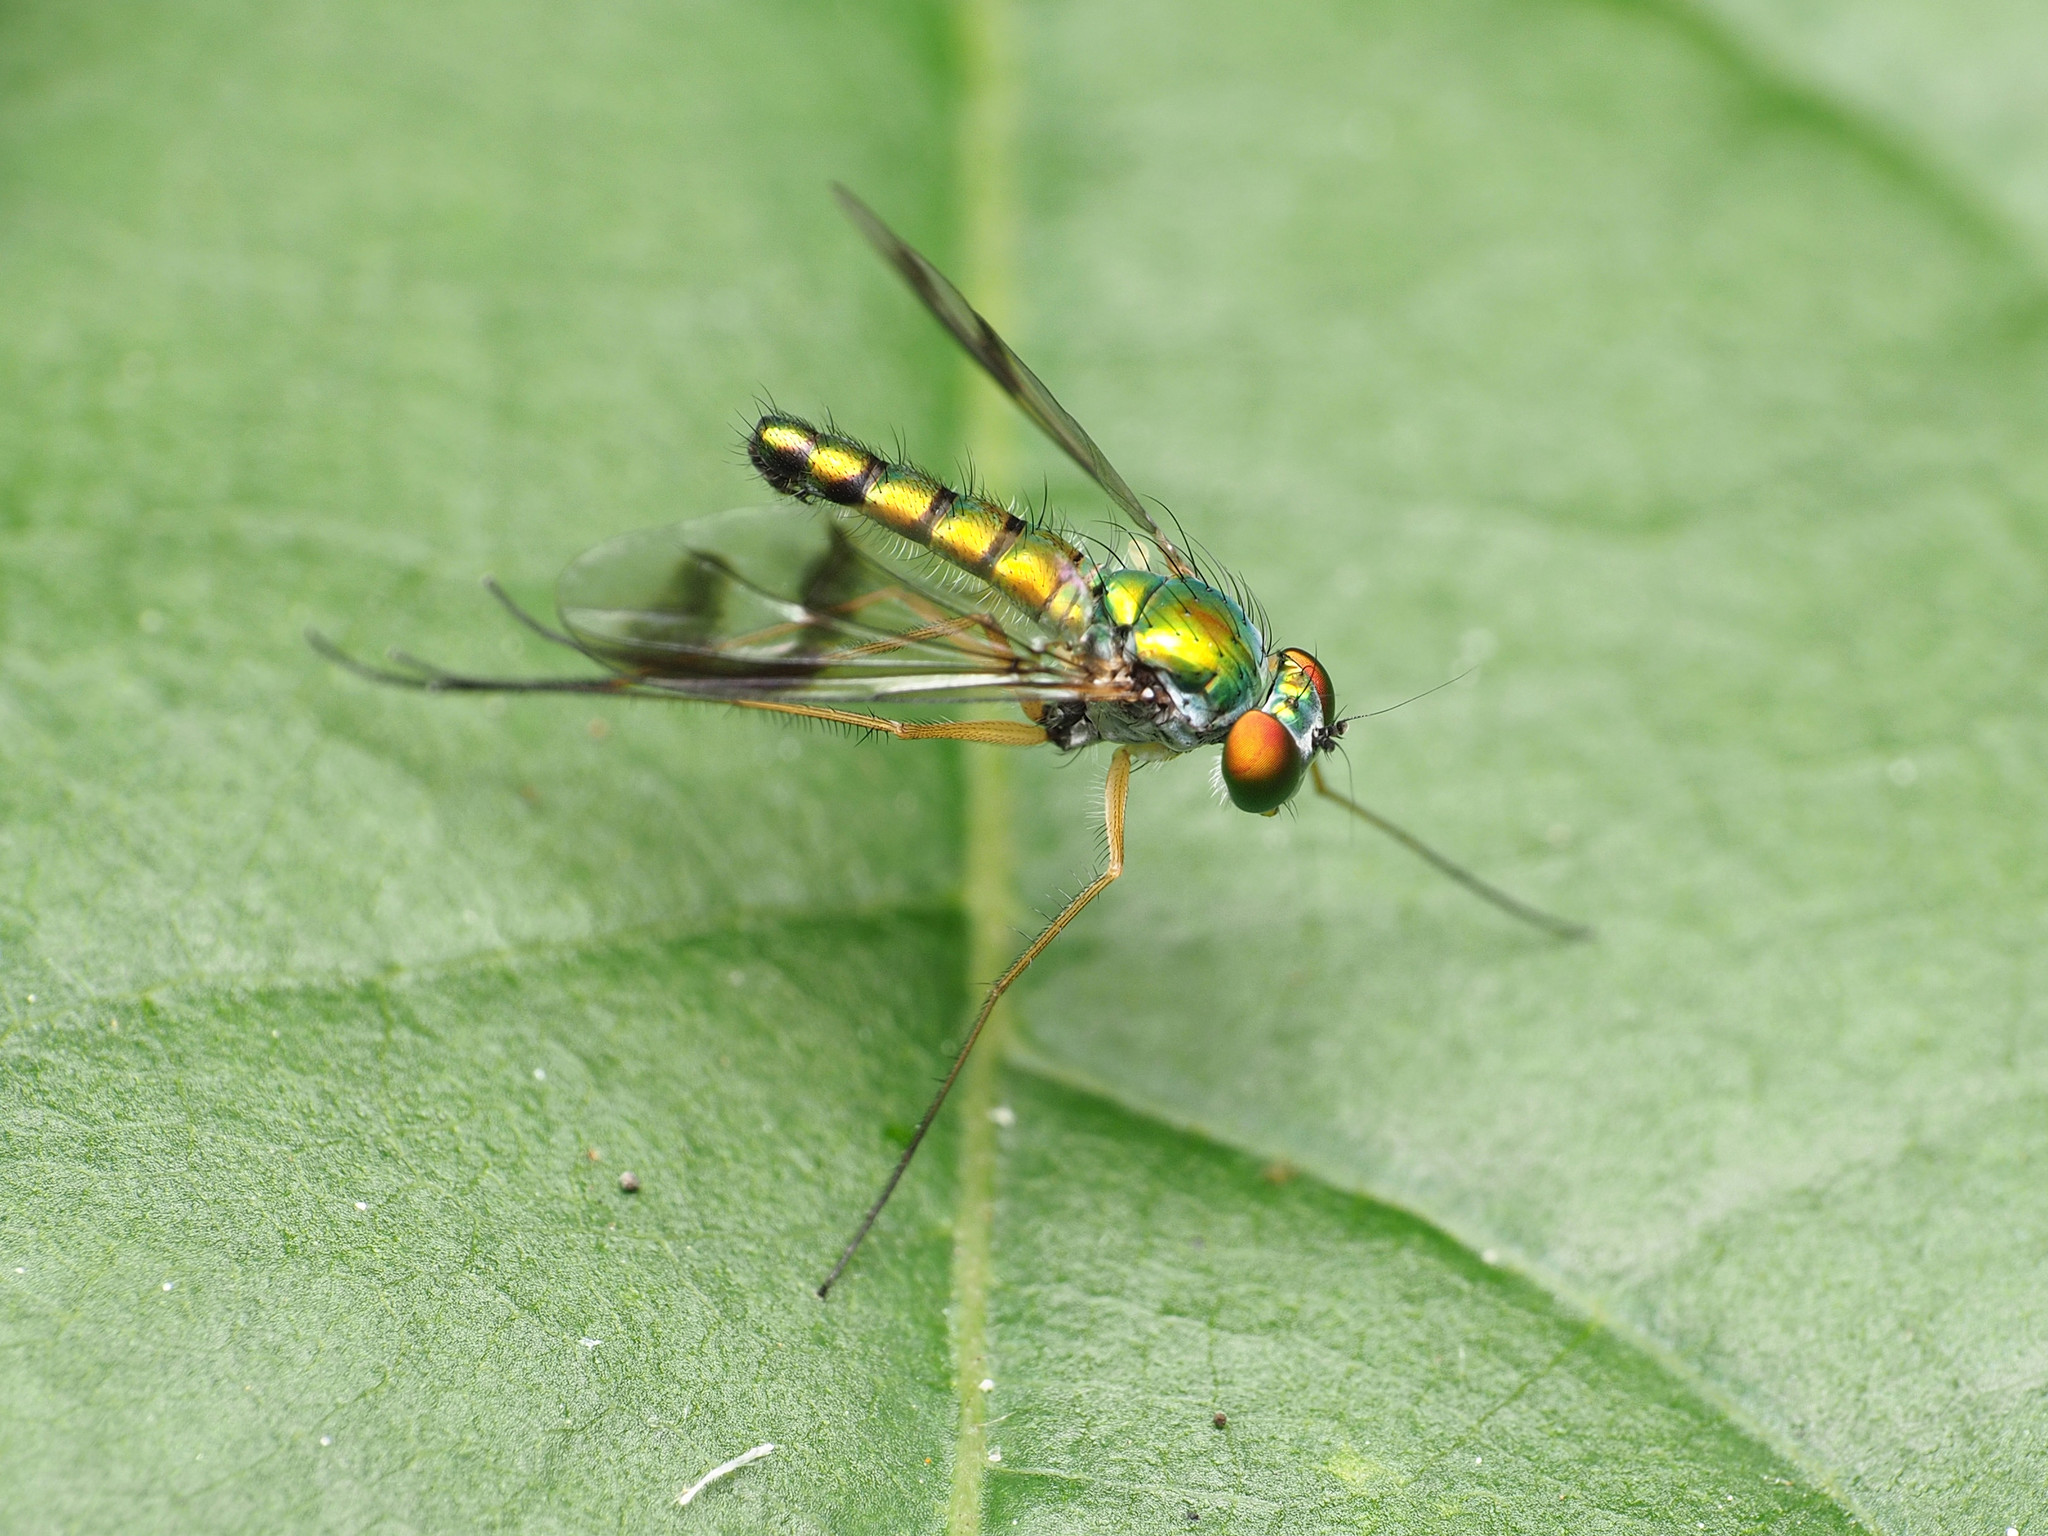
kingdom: Animalia
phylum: Arthropoda
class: Insecta
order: Diptera
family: Dolichopodidae
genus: Condylostylus
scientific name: Condylostylus
